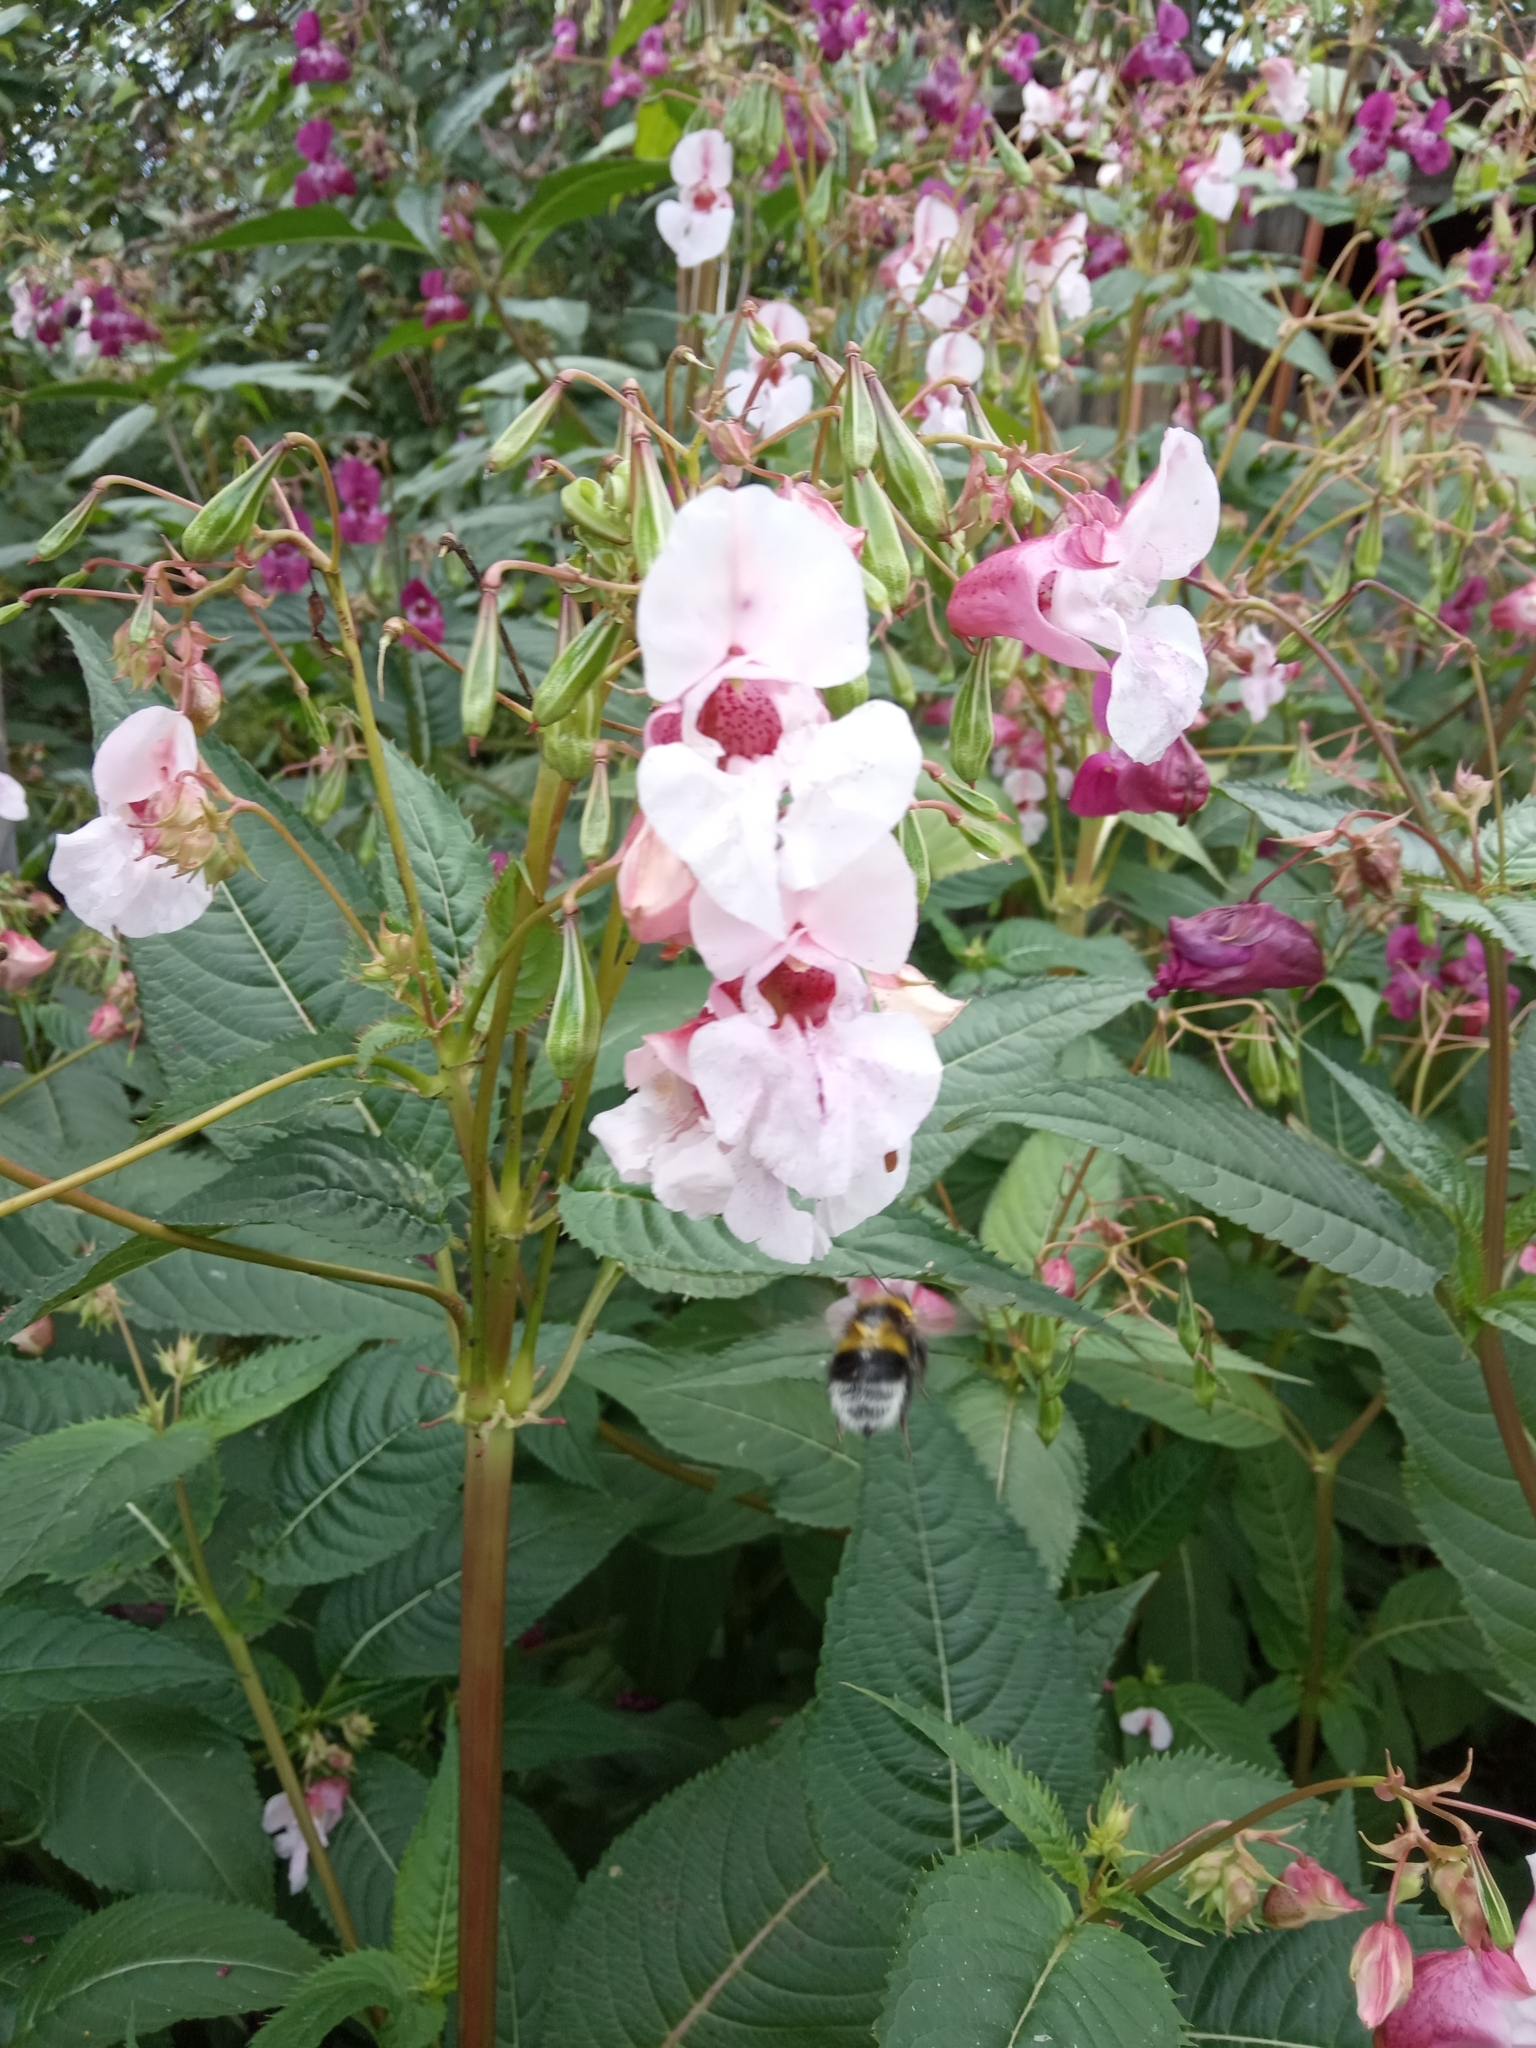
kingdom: Animalia
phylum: Arthropoda
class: Insecta
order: Hymenoptera
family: Apidae
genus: Bombus
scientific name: Bombus hortorum
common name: Garden bumblebee
